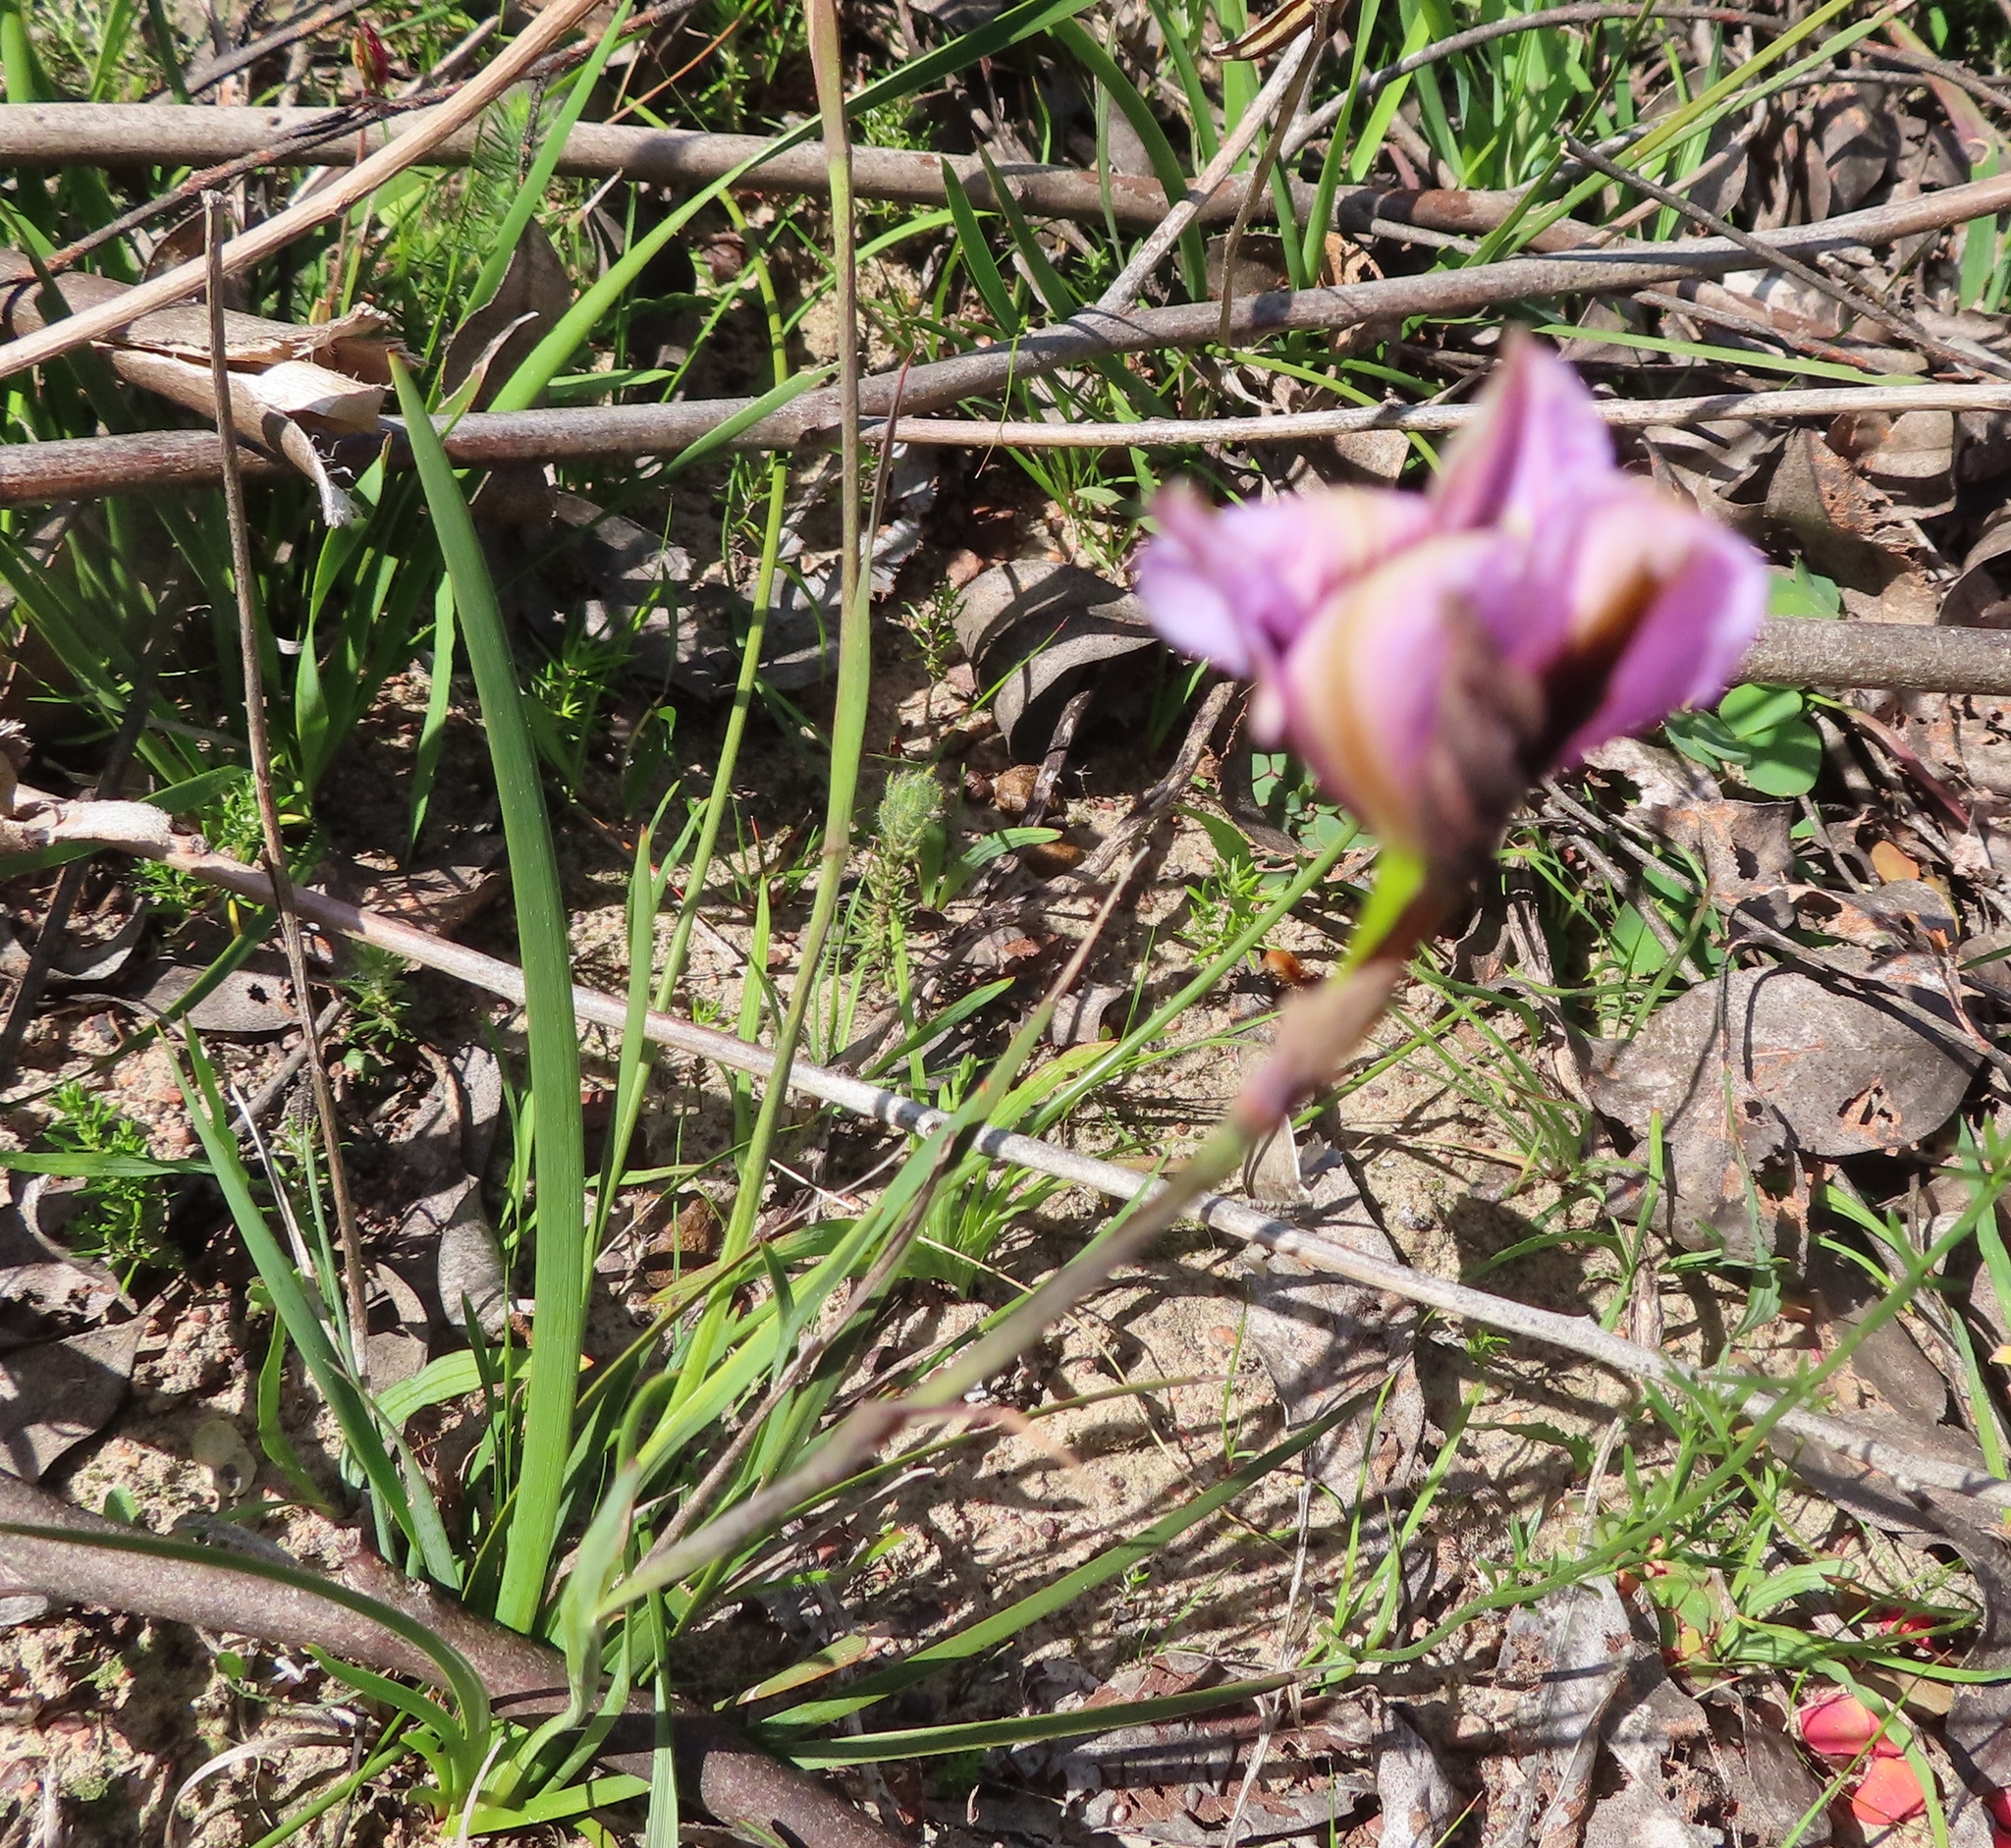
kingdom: Plantae
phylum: Tracheophyta
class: Liliopsida
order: Asparagales
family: Iridaceae
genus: Aristea
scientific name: Aristea teretifolia
